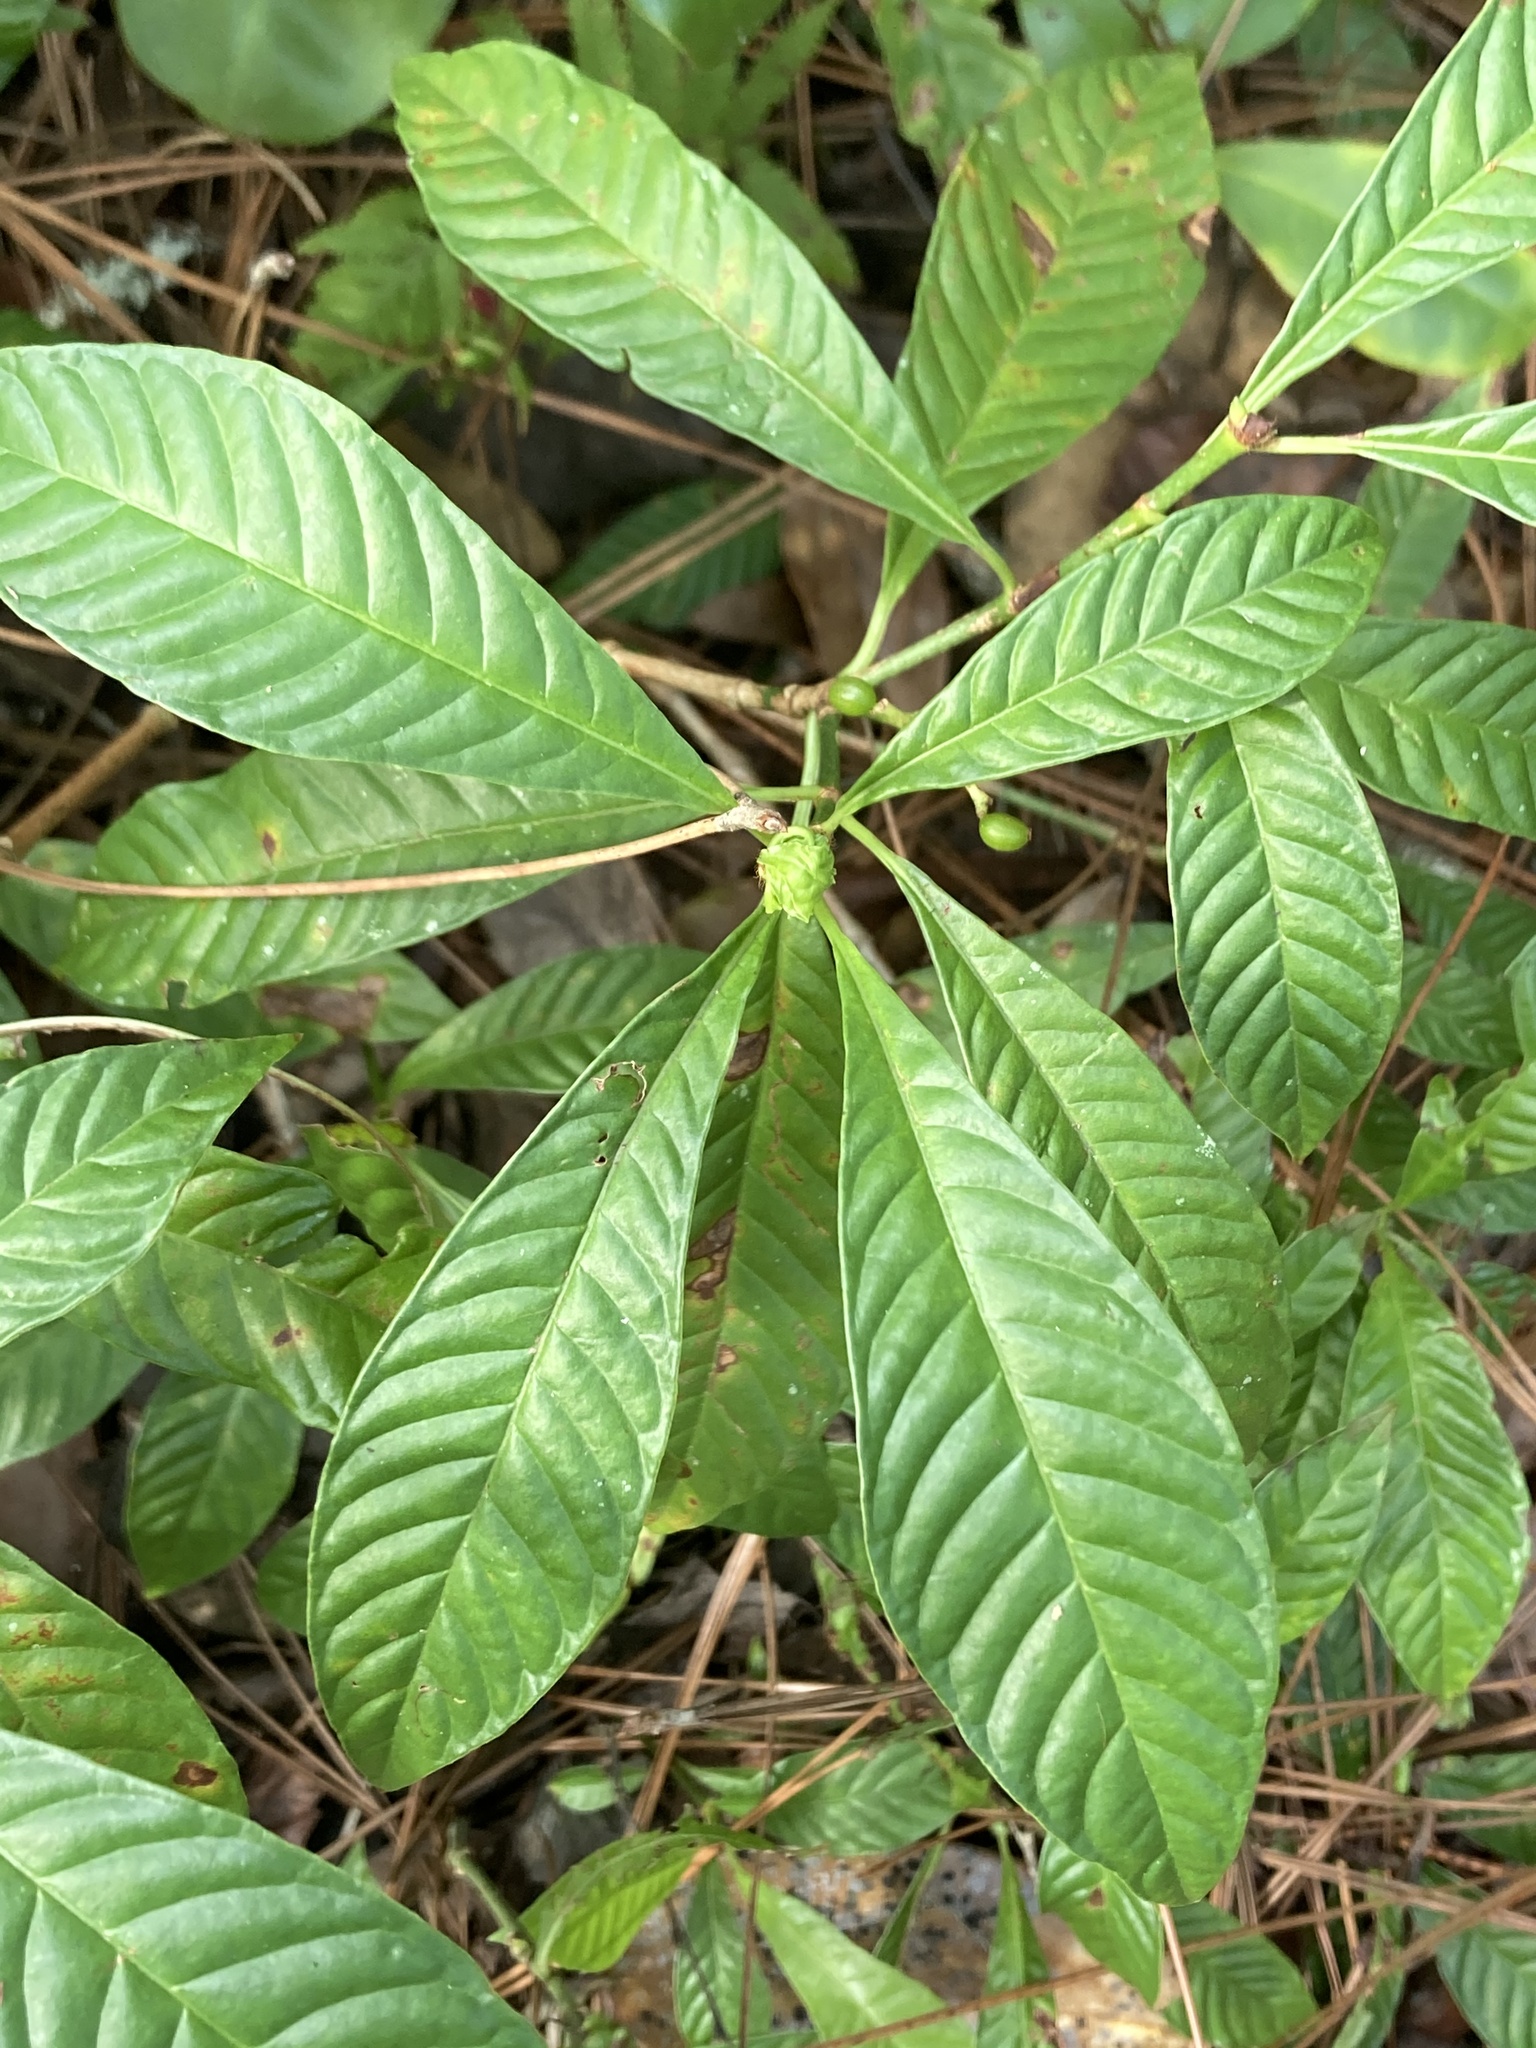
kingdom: Plantae
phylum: Tracheophyta
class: Magnoliopsida
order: Gentianales
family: Rubiaceae
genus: Psychotria
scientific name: Psychotria nervosa
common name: Bastard cankerberry
